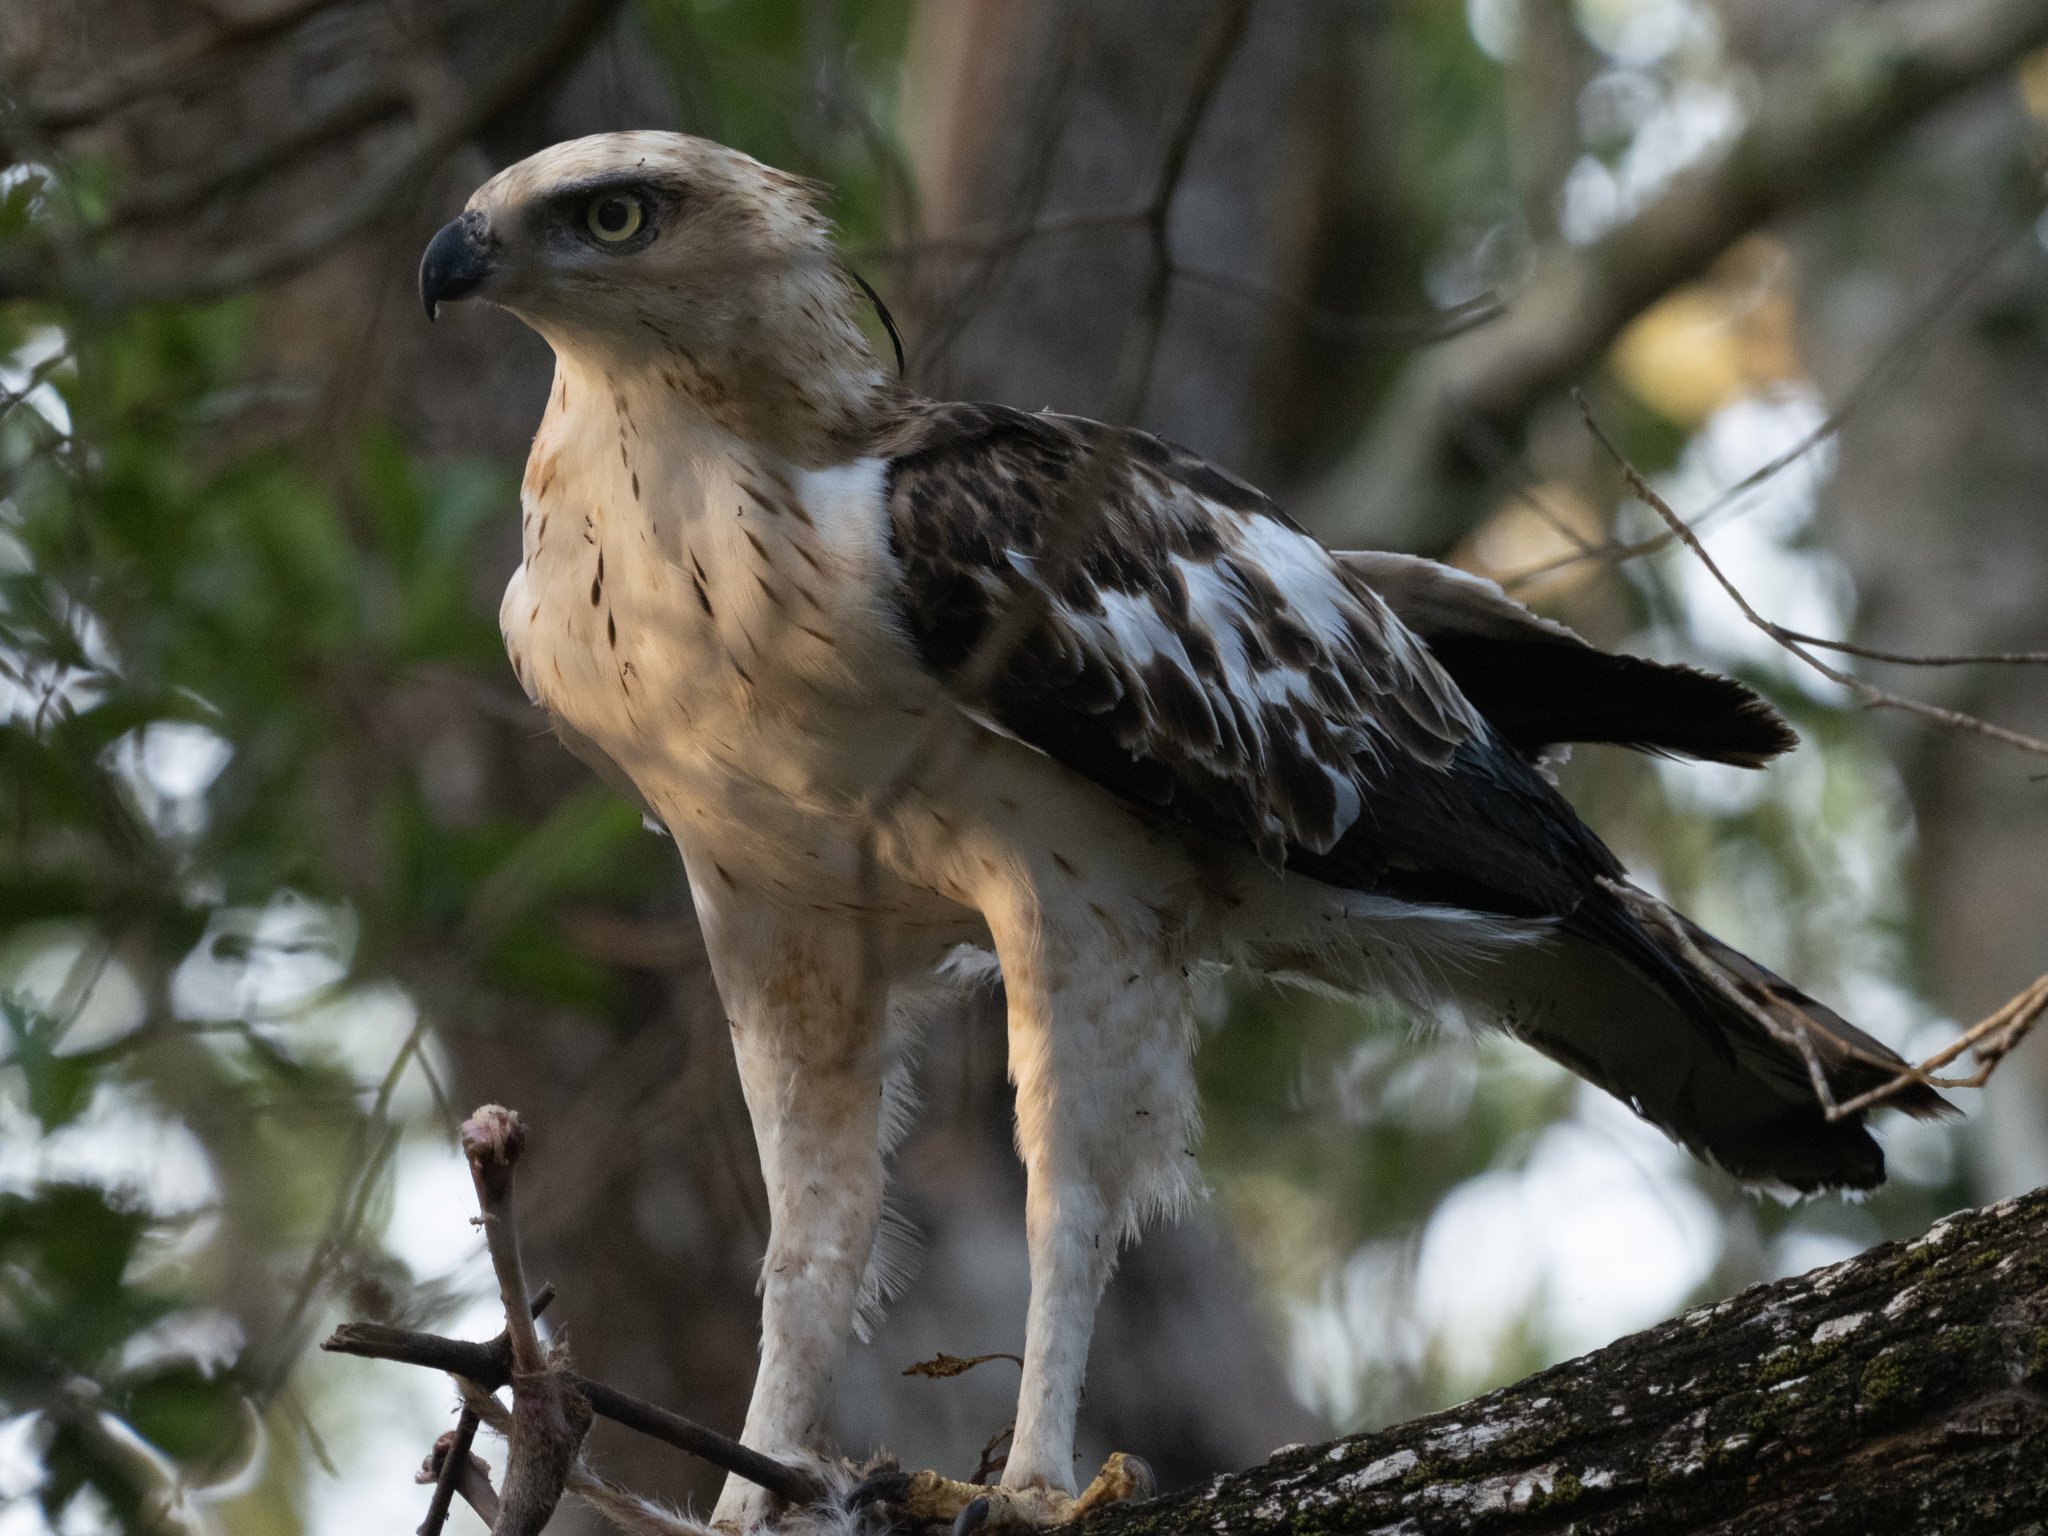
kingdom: Animalia
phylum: Chordata
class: Aves
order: Accipitriformes
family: Accipitridae
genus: Nisaetus
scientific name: Nisaetus cirrhatus
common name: Changeable hawk-eagle
